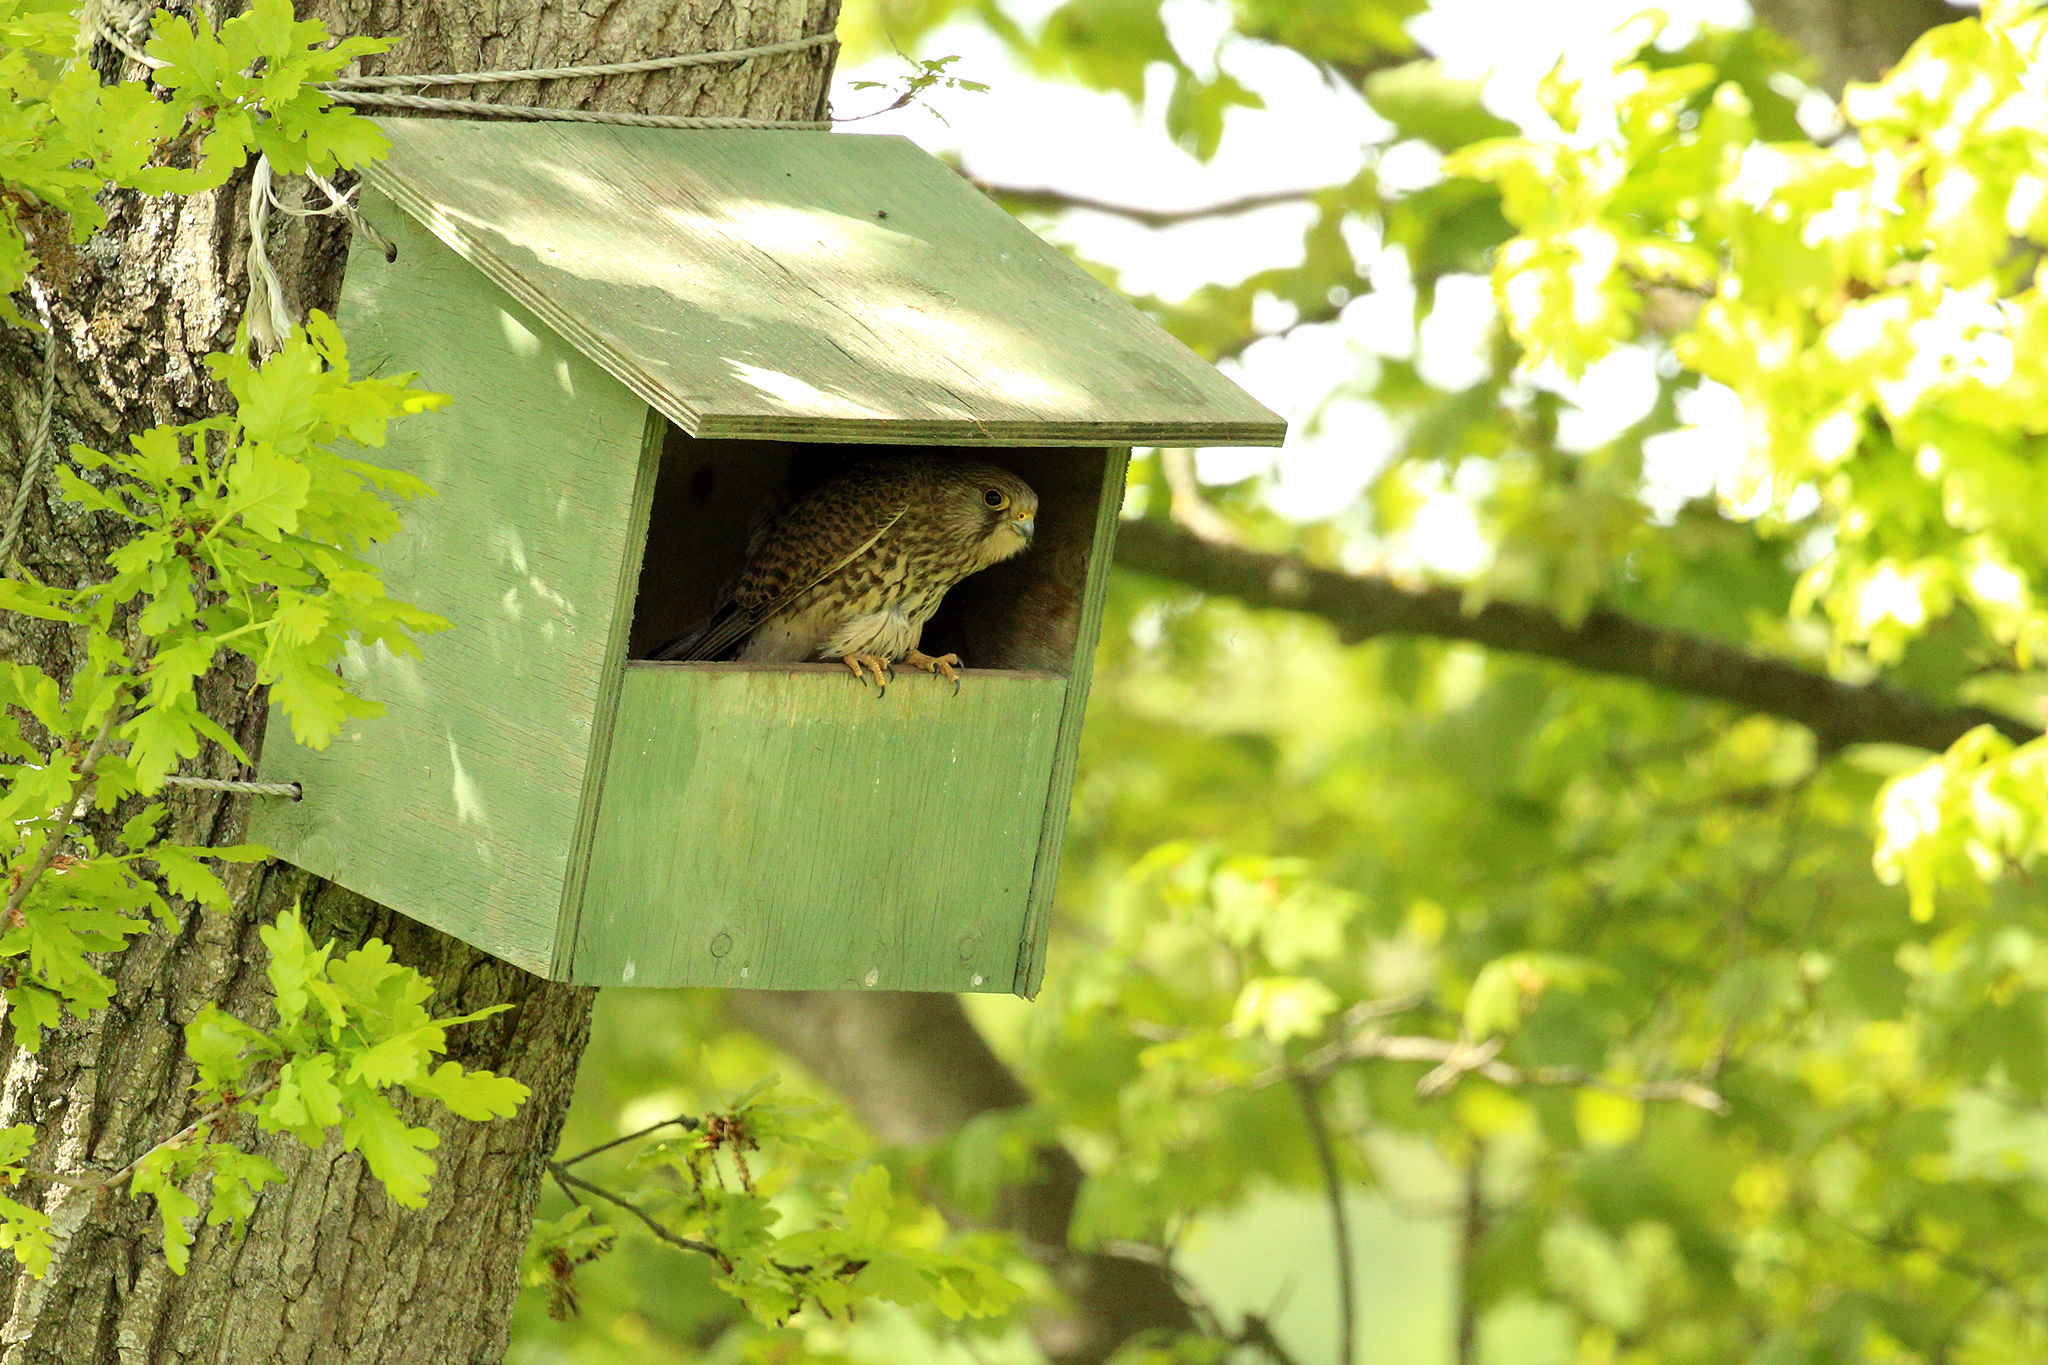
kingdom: Animalia
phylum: Chordata
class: Aves
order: Falconiformes
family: Falconidae
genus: Falco
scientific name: Falco tinnunculus
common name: Common kestrel
